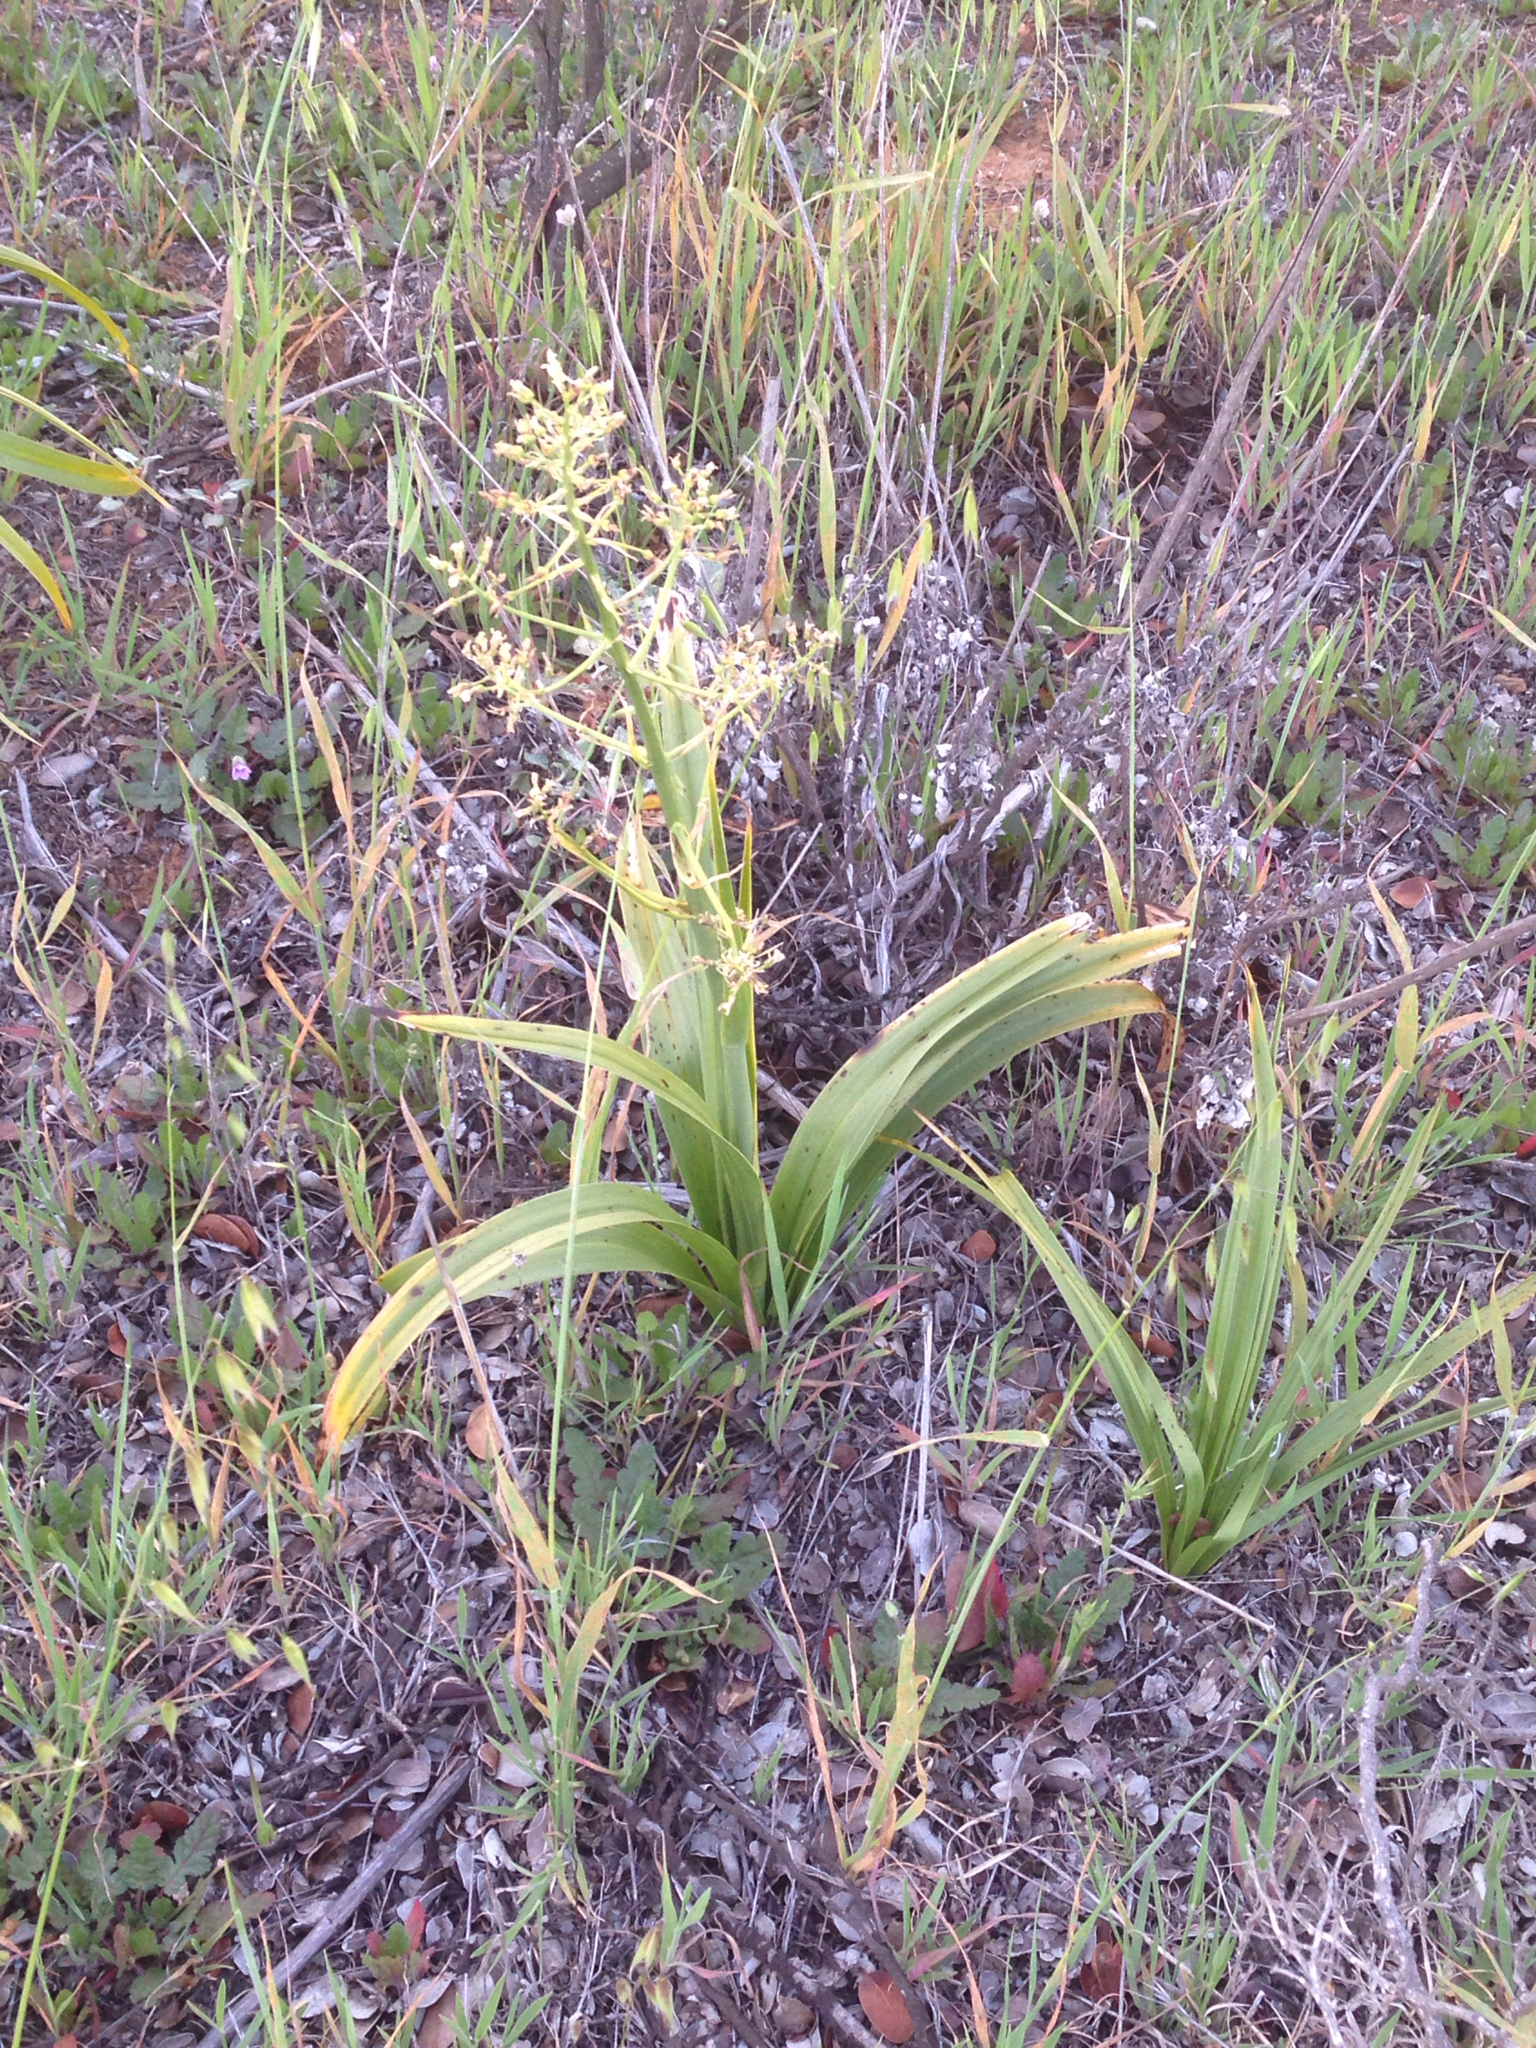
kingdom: Plantae
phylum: Tracheophyta
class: Liliopsida
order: Liliales
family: Melanthiaceae
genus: Toxicoscordion
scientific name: Toxicoscordion fremontii
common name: Fremont's death camas
